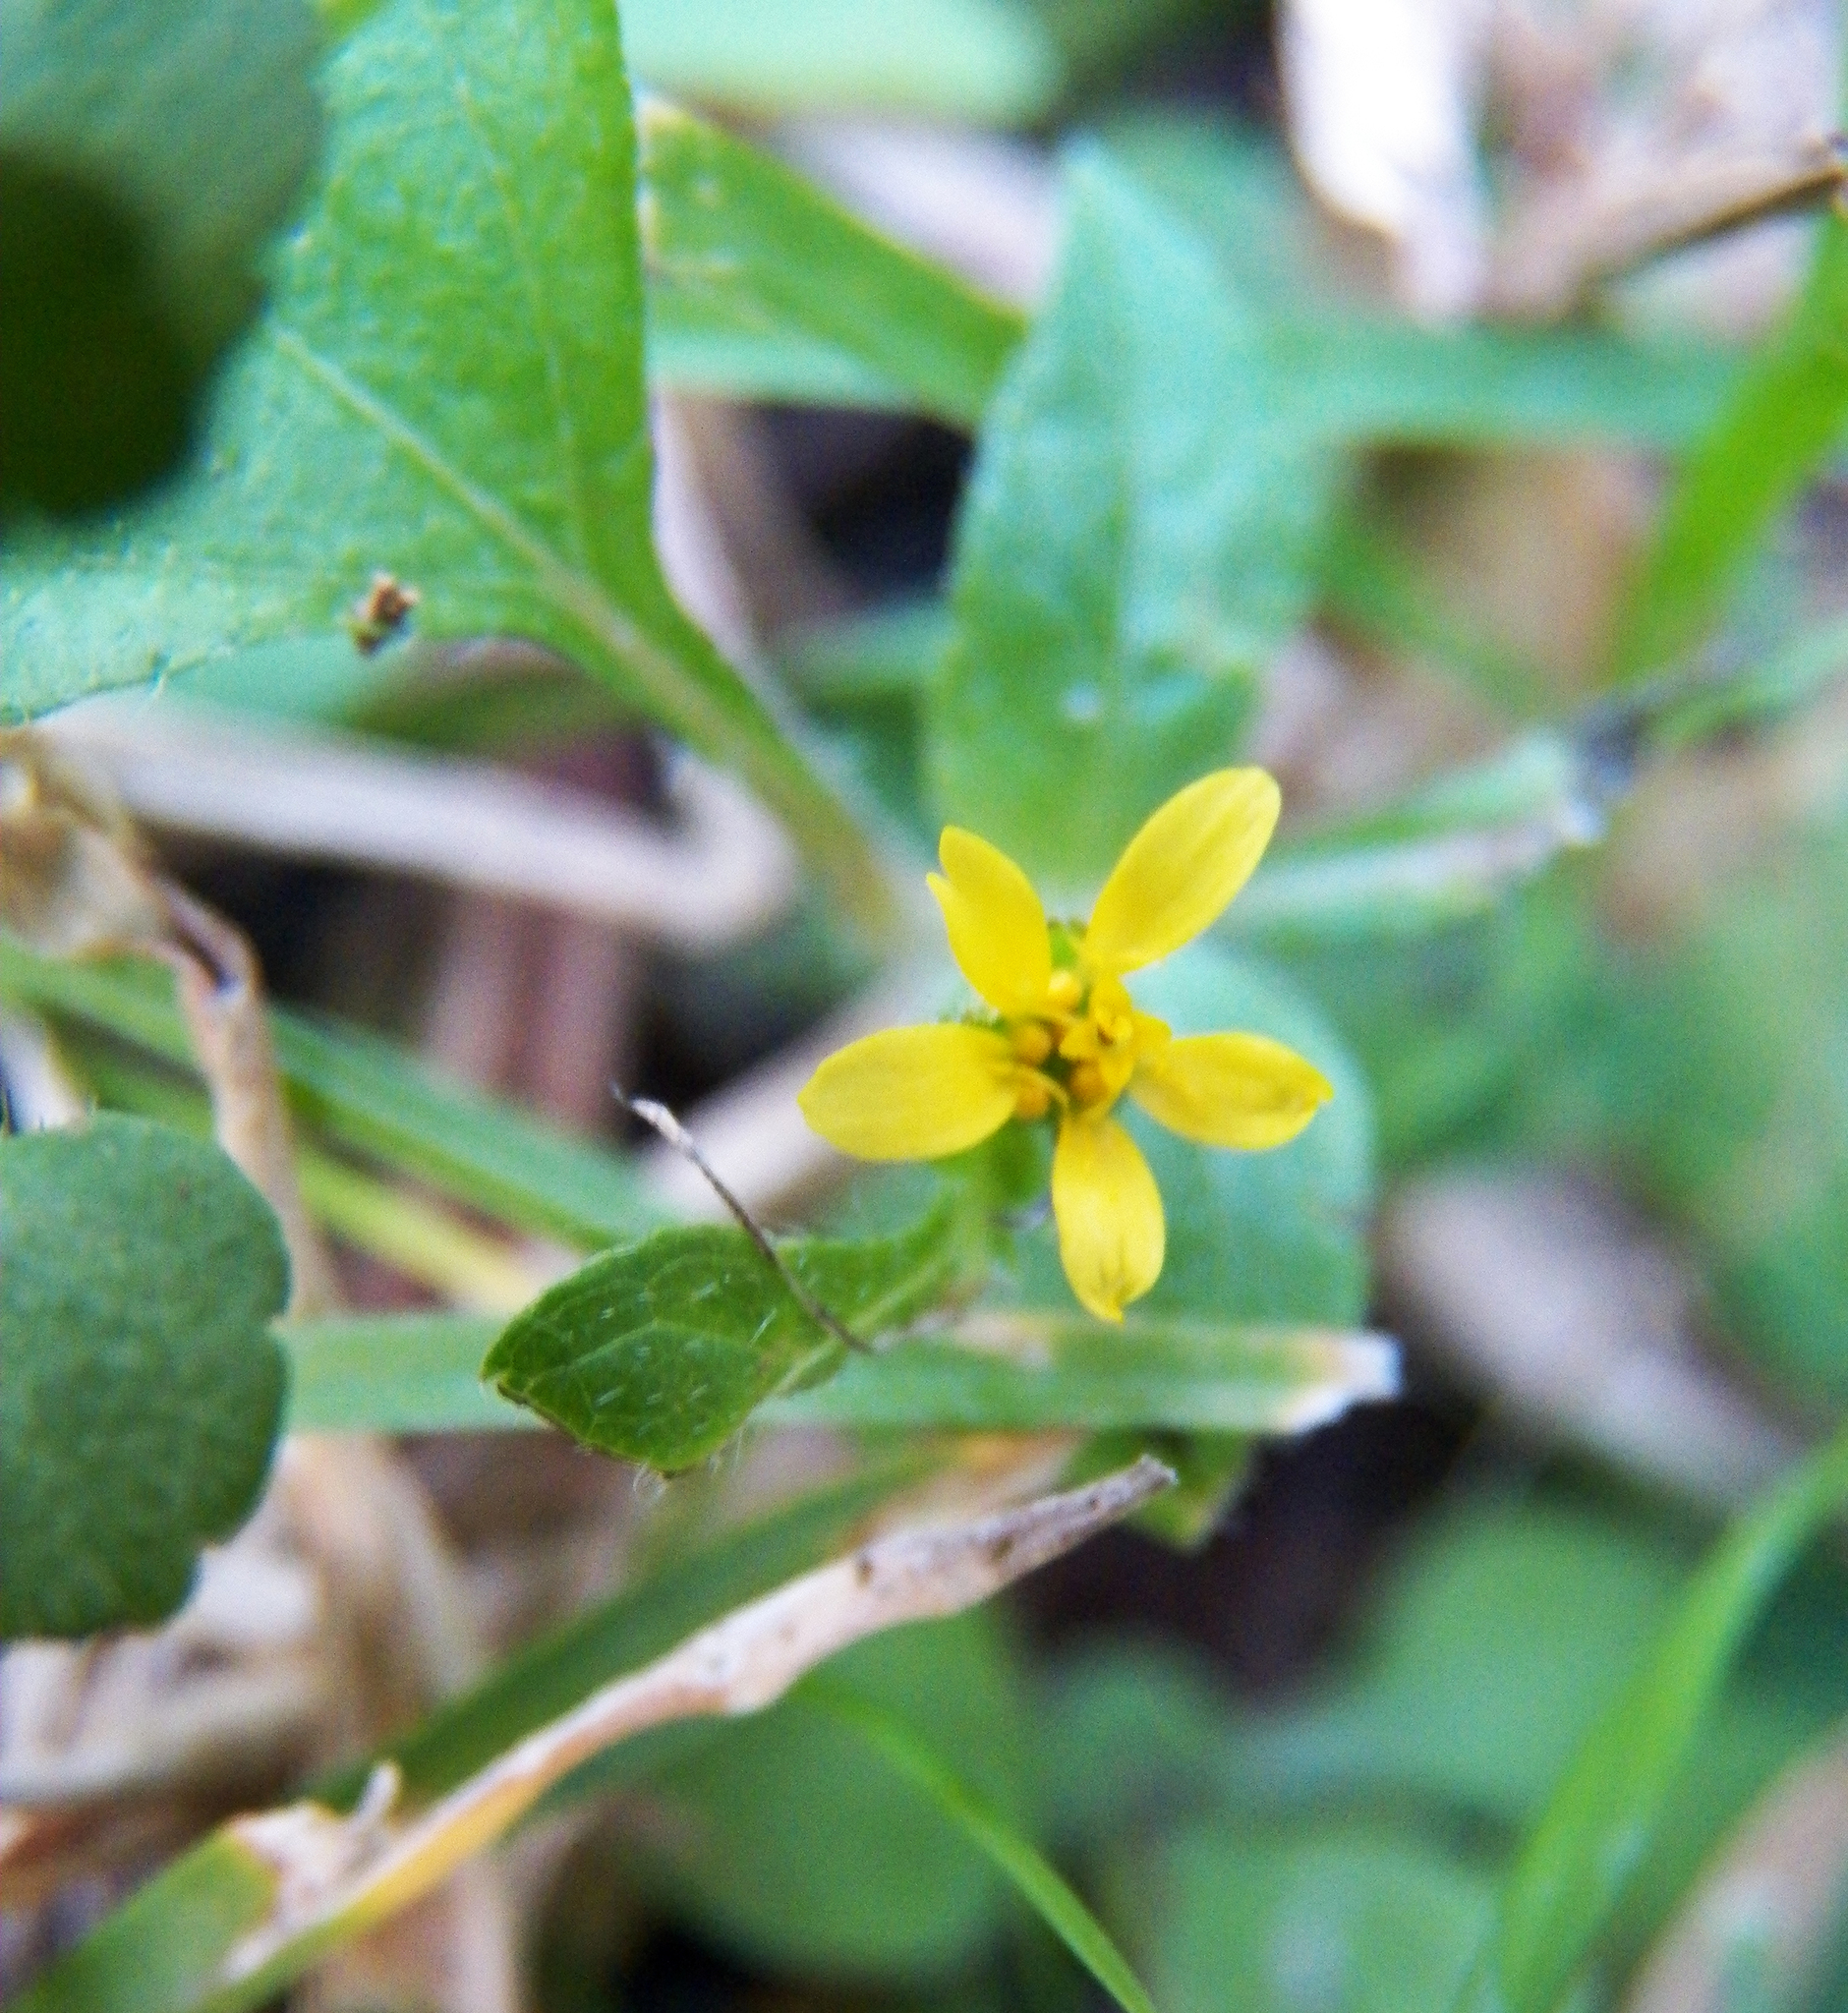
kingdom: Plantae
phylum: Tracheophyta
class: Magnoliopsida
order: Asterales
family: Asteraceae
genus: Calyptocarpus
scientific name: Calyptocarpus vialis
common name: Straggler daisy
